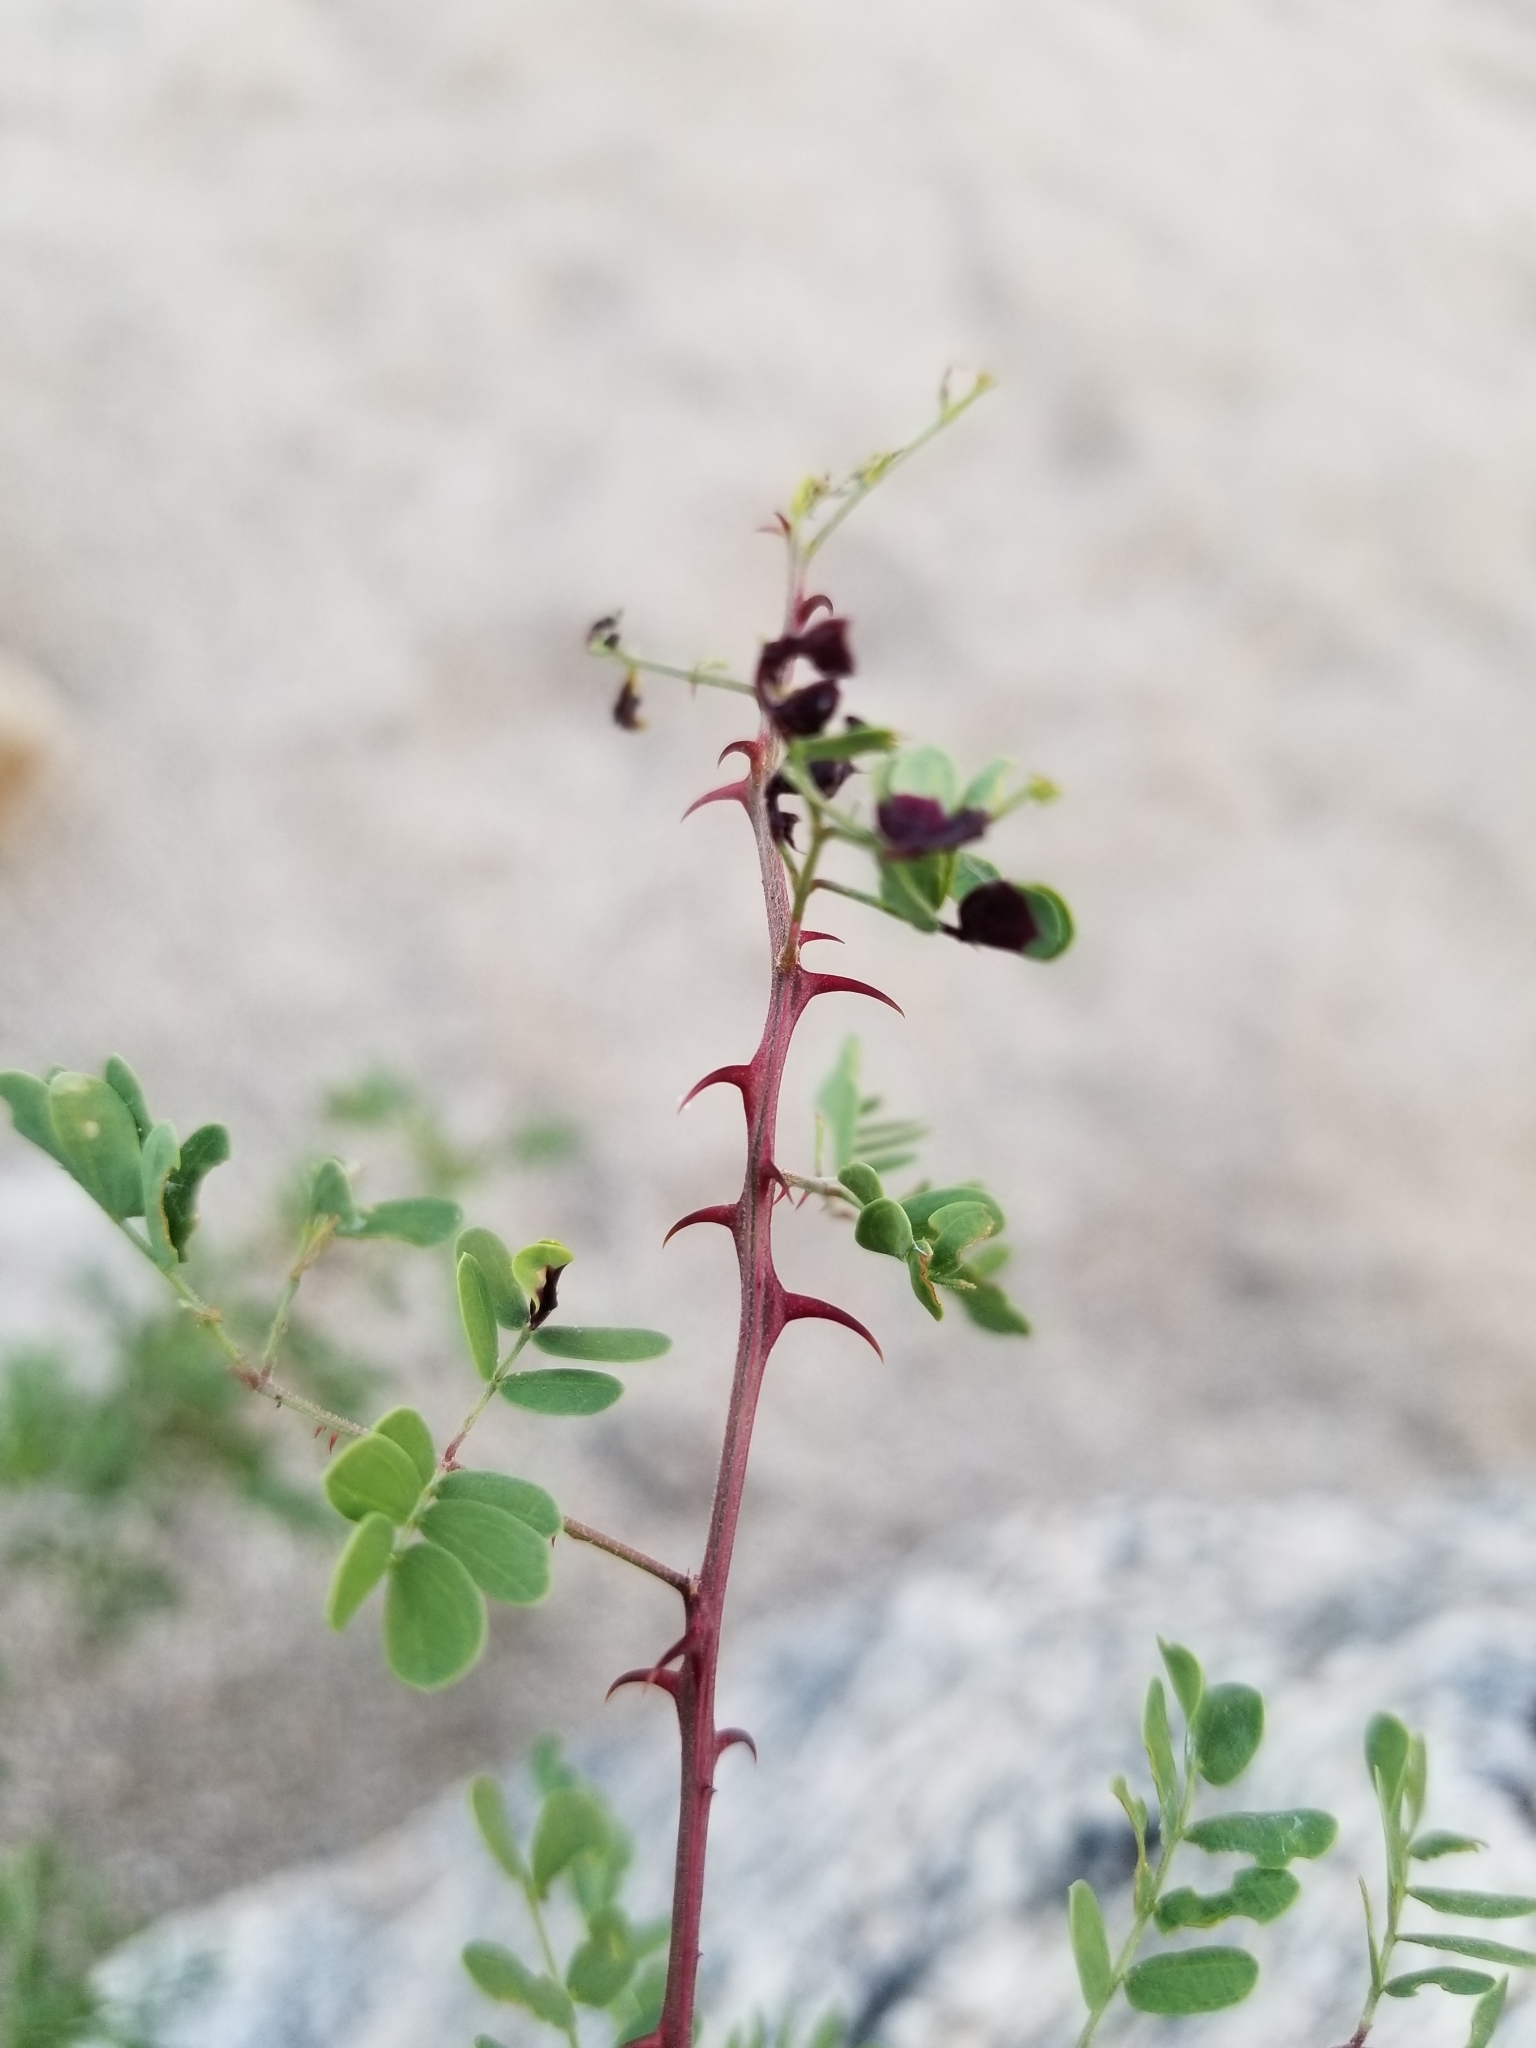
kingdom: Plantae
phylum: Tracheophyta
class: Magnoliopsida
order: Fabales
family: Fabaceae
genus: Senegalia
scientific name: Senegalia greggii
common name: Texas-mimosa
